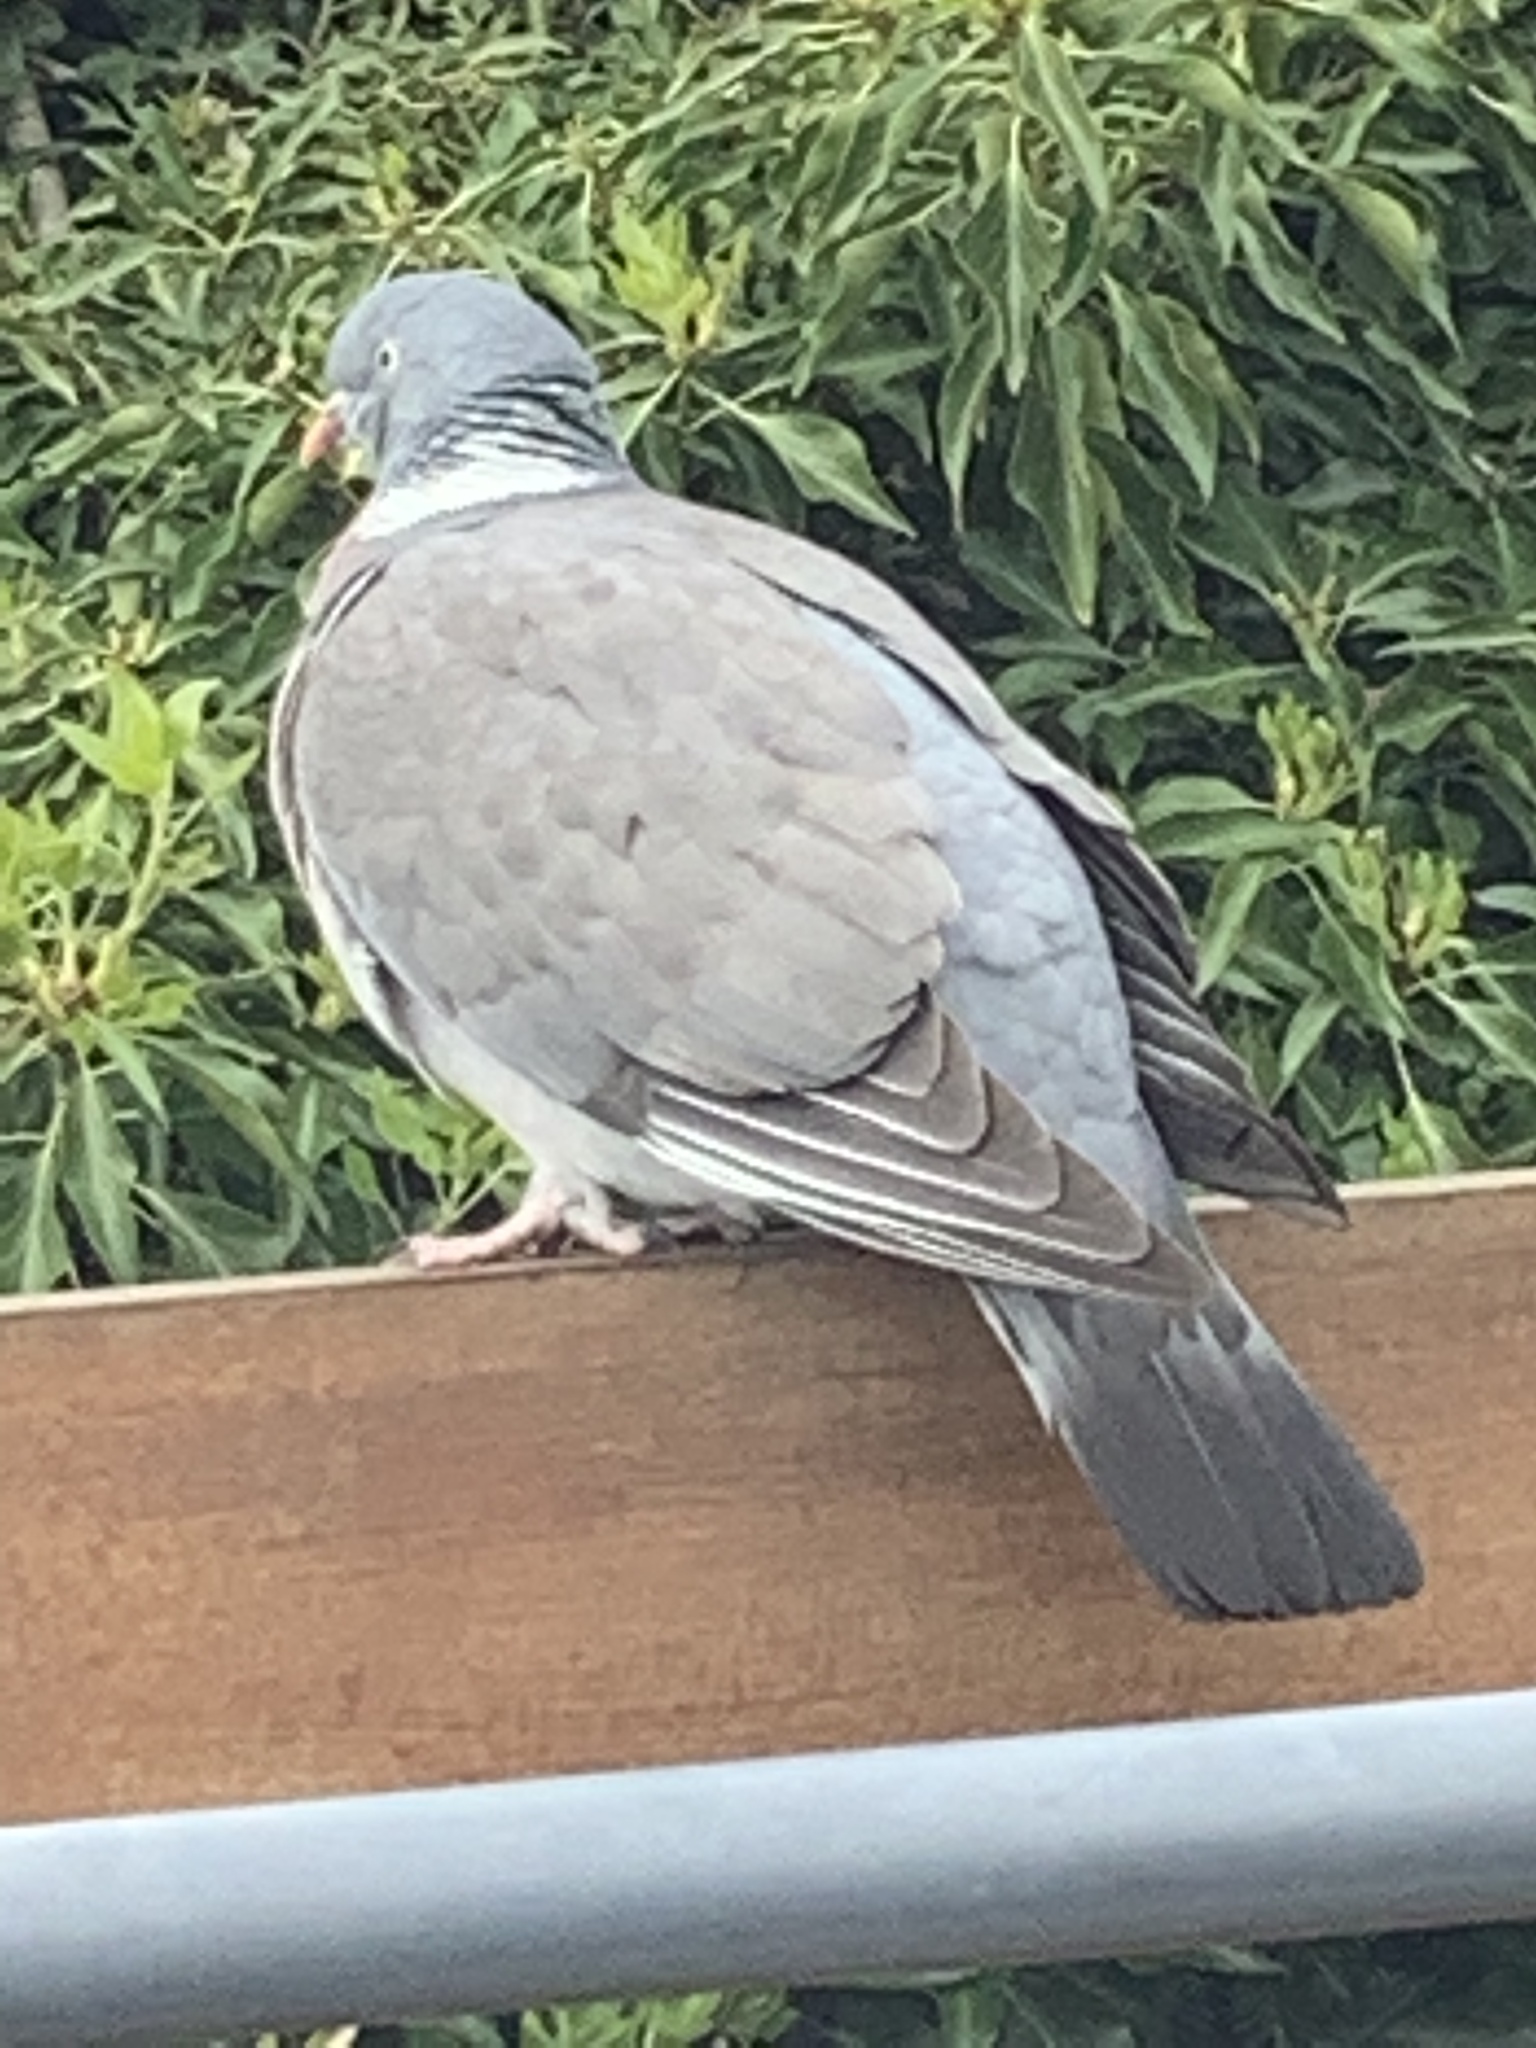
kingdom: Animalia
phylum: Chordata
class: Aves
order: Columbiformes
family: Columbidae
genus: Columba
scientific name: Columba palumbus
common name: Common wood pigeon
